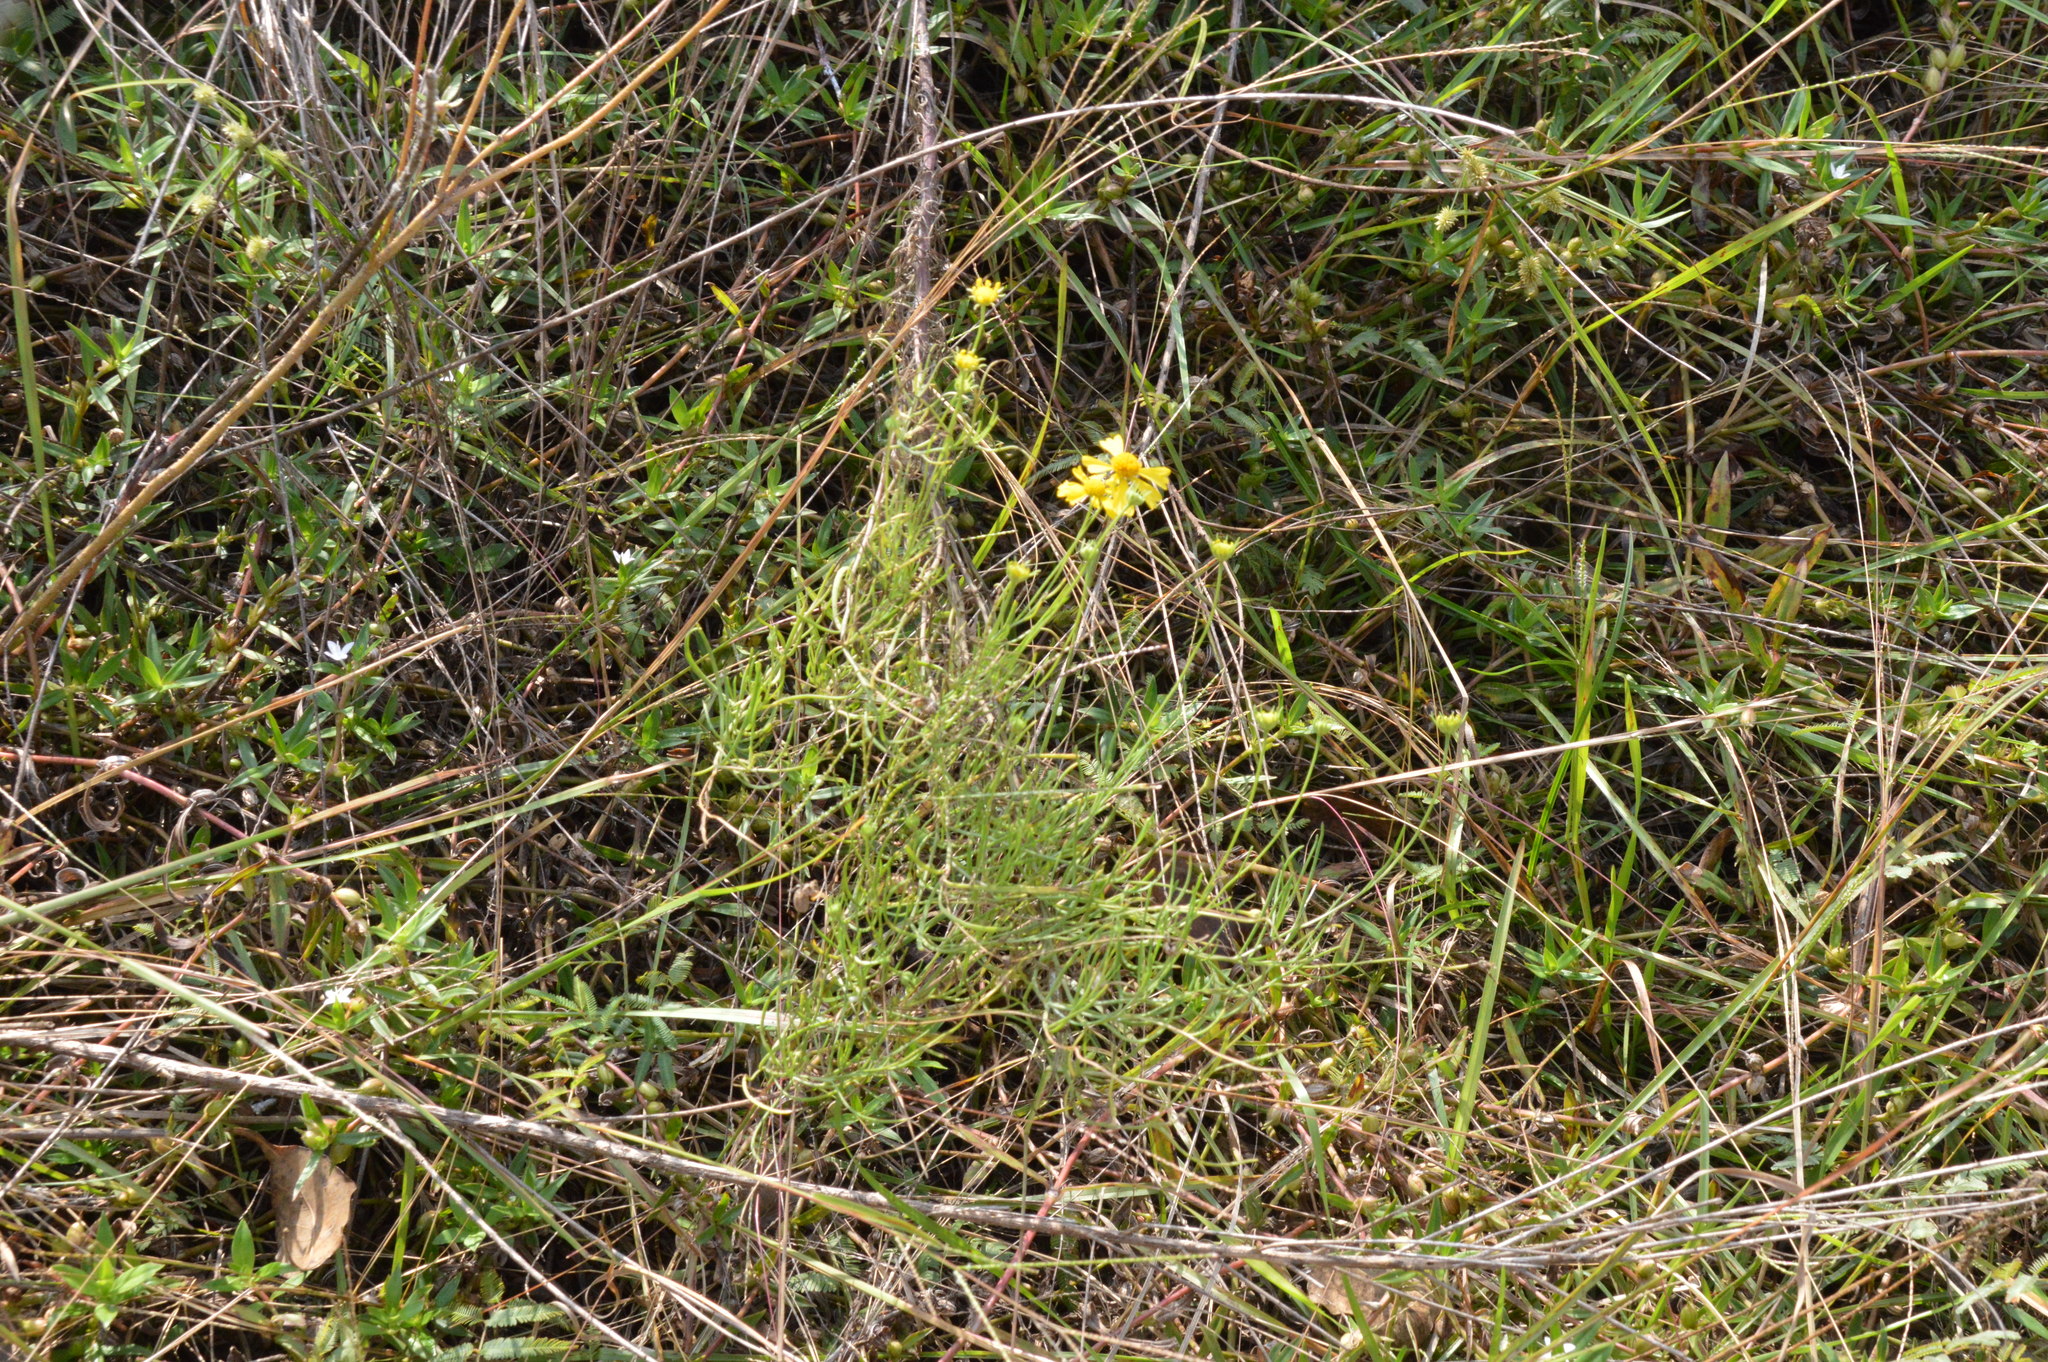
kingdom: Plantae
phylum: Tracheophyta
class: Magnoliopsida
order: Asterales
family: Asteraceae
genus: Helenium
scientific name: Helenium amarum
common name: Bitter sneezeweed
